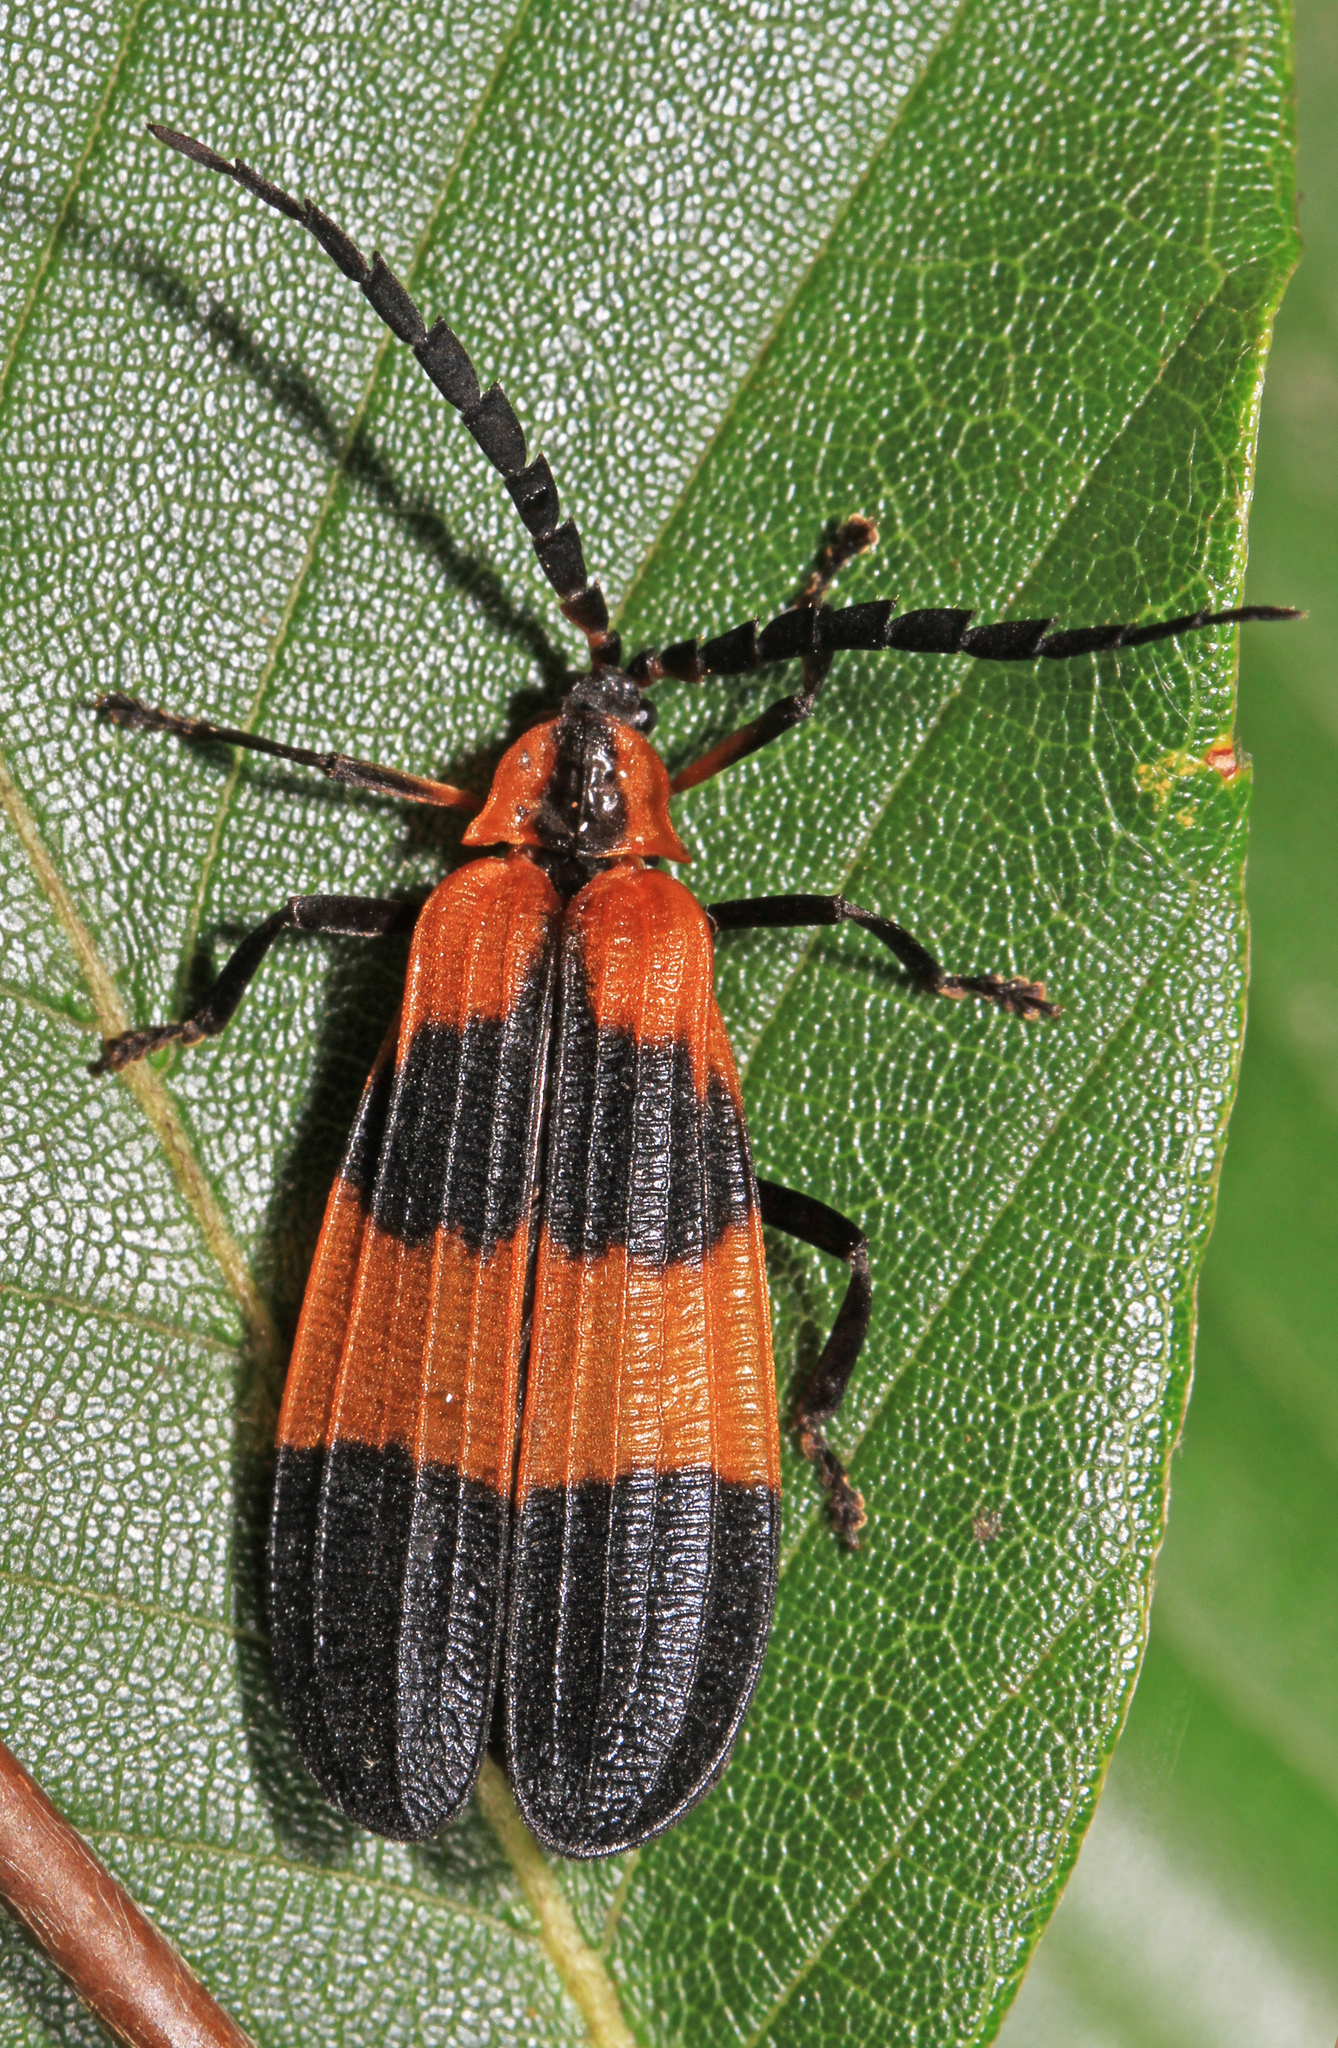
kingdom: Animalia
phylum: Arthropoda
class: Insecta
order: Coleoptera
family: Lycidae
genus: Calopteron
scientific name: Calopteron reticulatum
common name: Banded net-winged beetle
